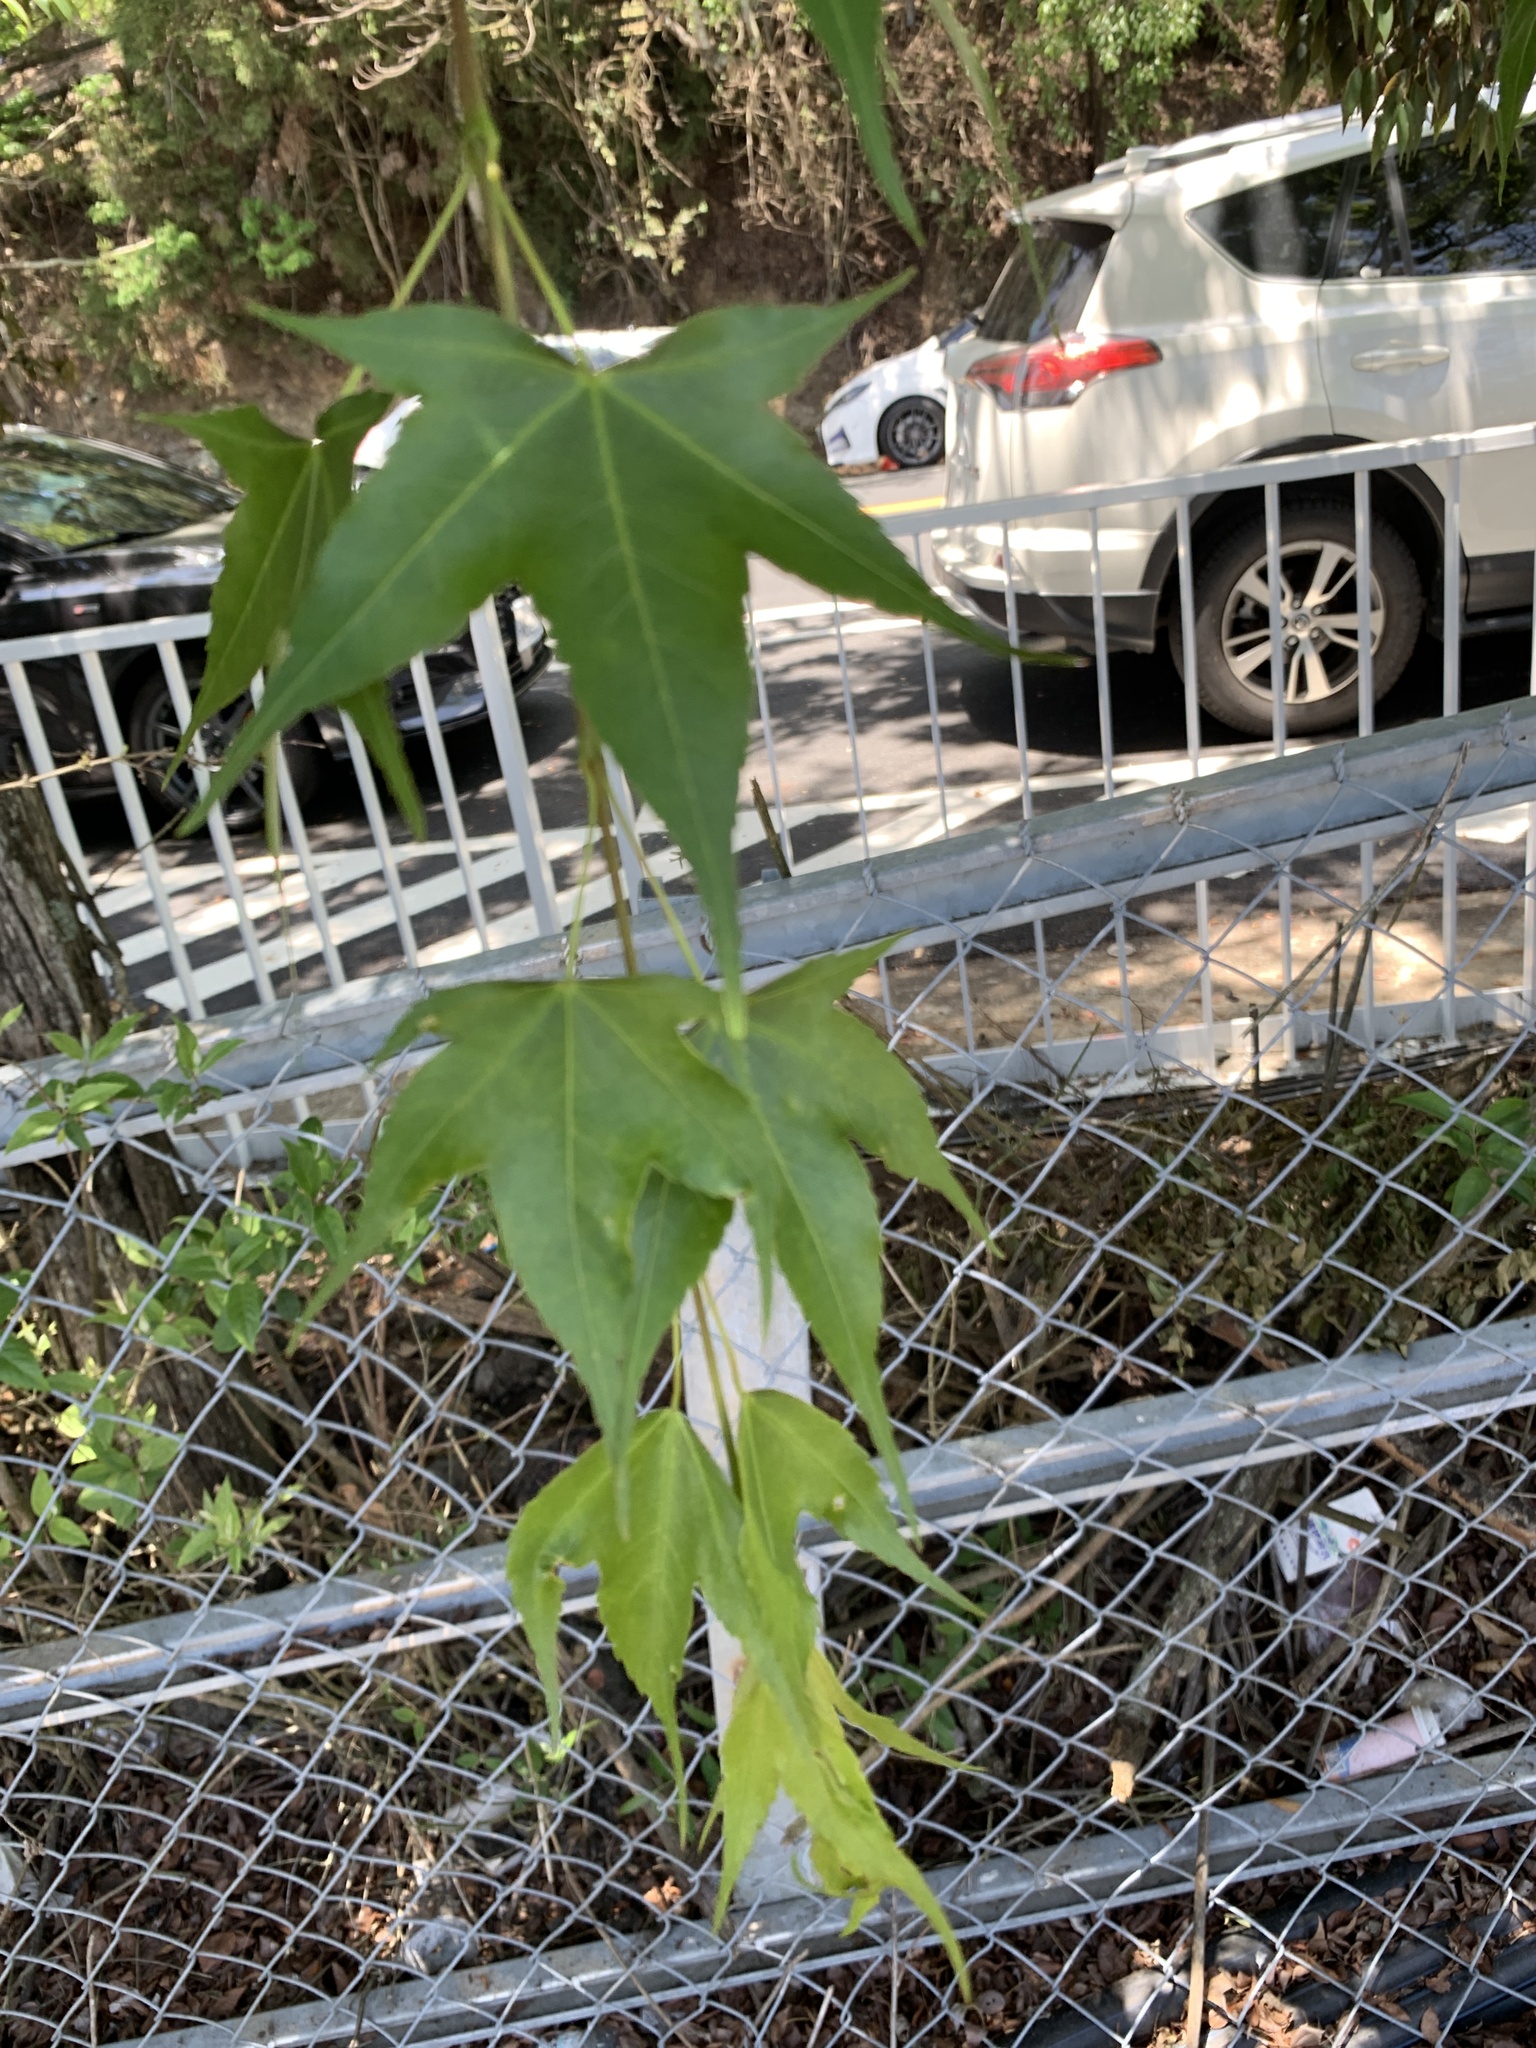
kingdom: Plantae
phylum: Tracheophyta
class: Magnoliopsida
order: Sapindales
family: Sapindaceae
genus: Acer
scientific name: Acer serrulatum
